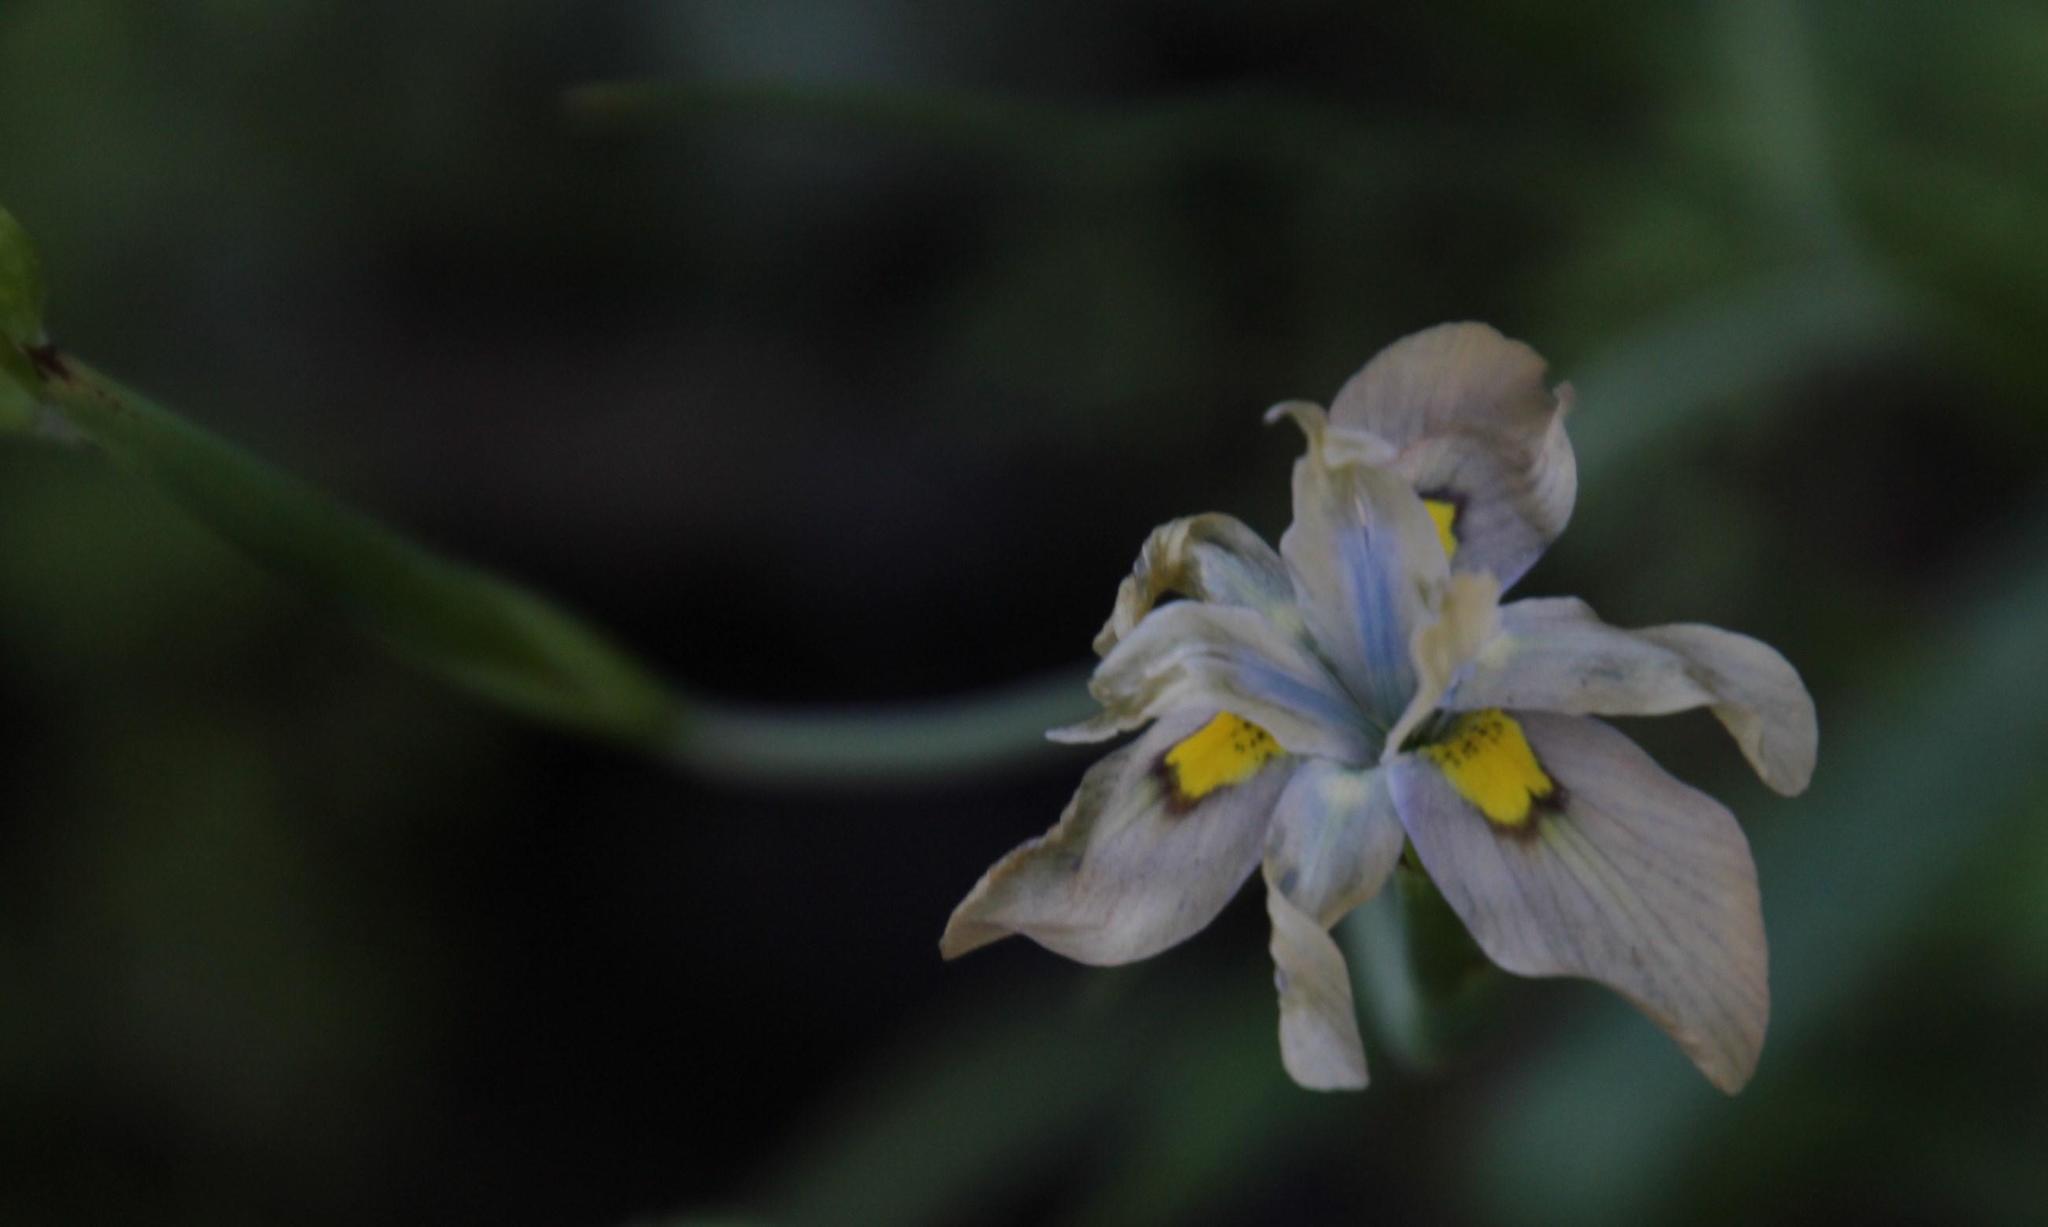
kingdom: Plantae
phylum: Tracheophyta
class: Liliopsida
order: Asparagales
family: Iridaceae
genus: Moraea
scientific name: Moraea vegeta
